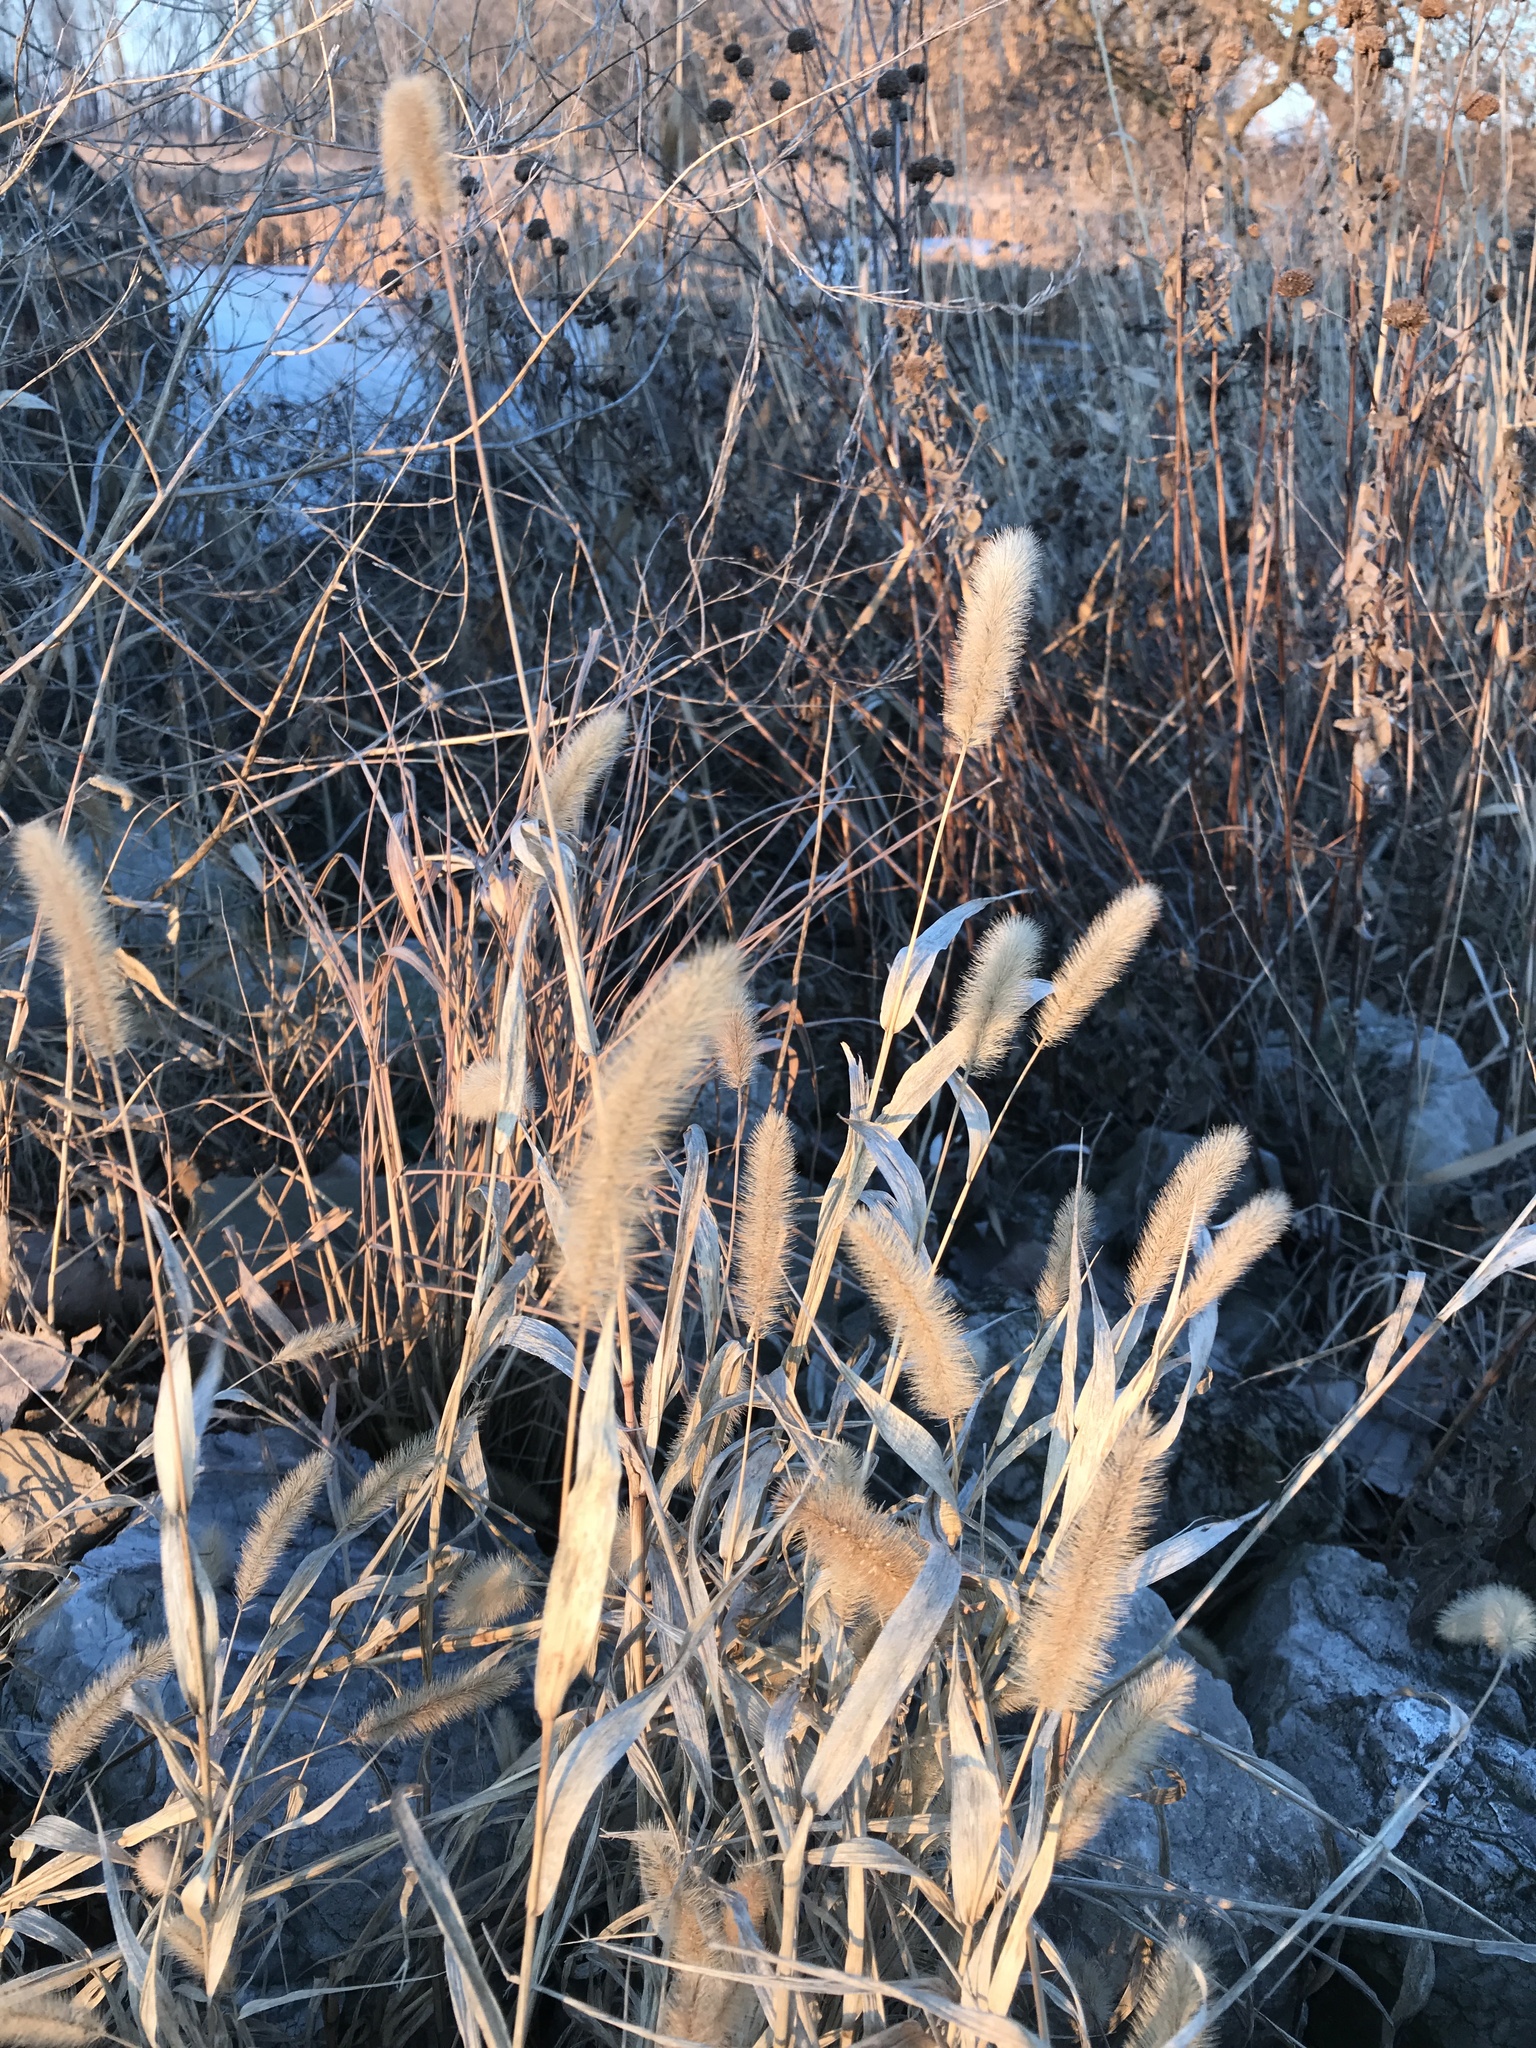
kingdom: Plantae
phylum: Tracheophyta
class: Liliopsida
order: Poales
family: Poaceae
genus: Setaria
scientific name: Setaria viridis
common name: Green bristlegrass
